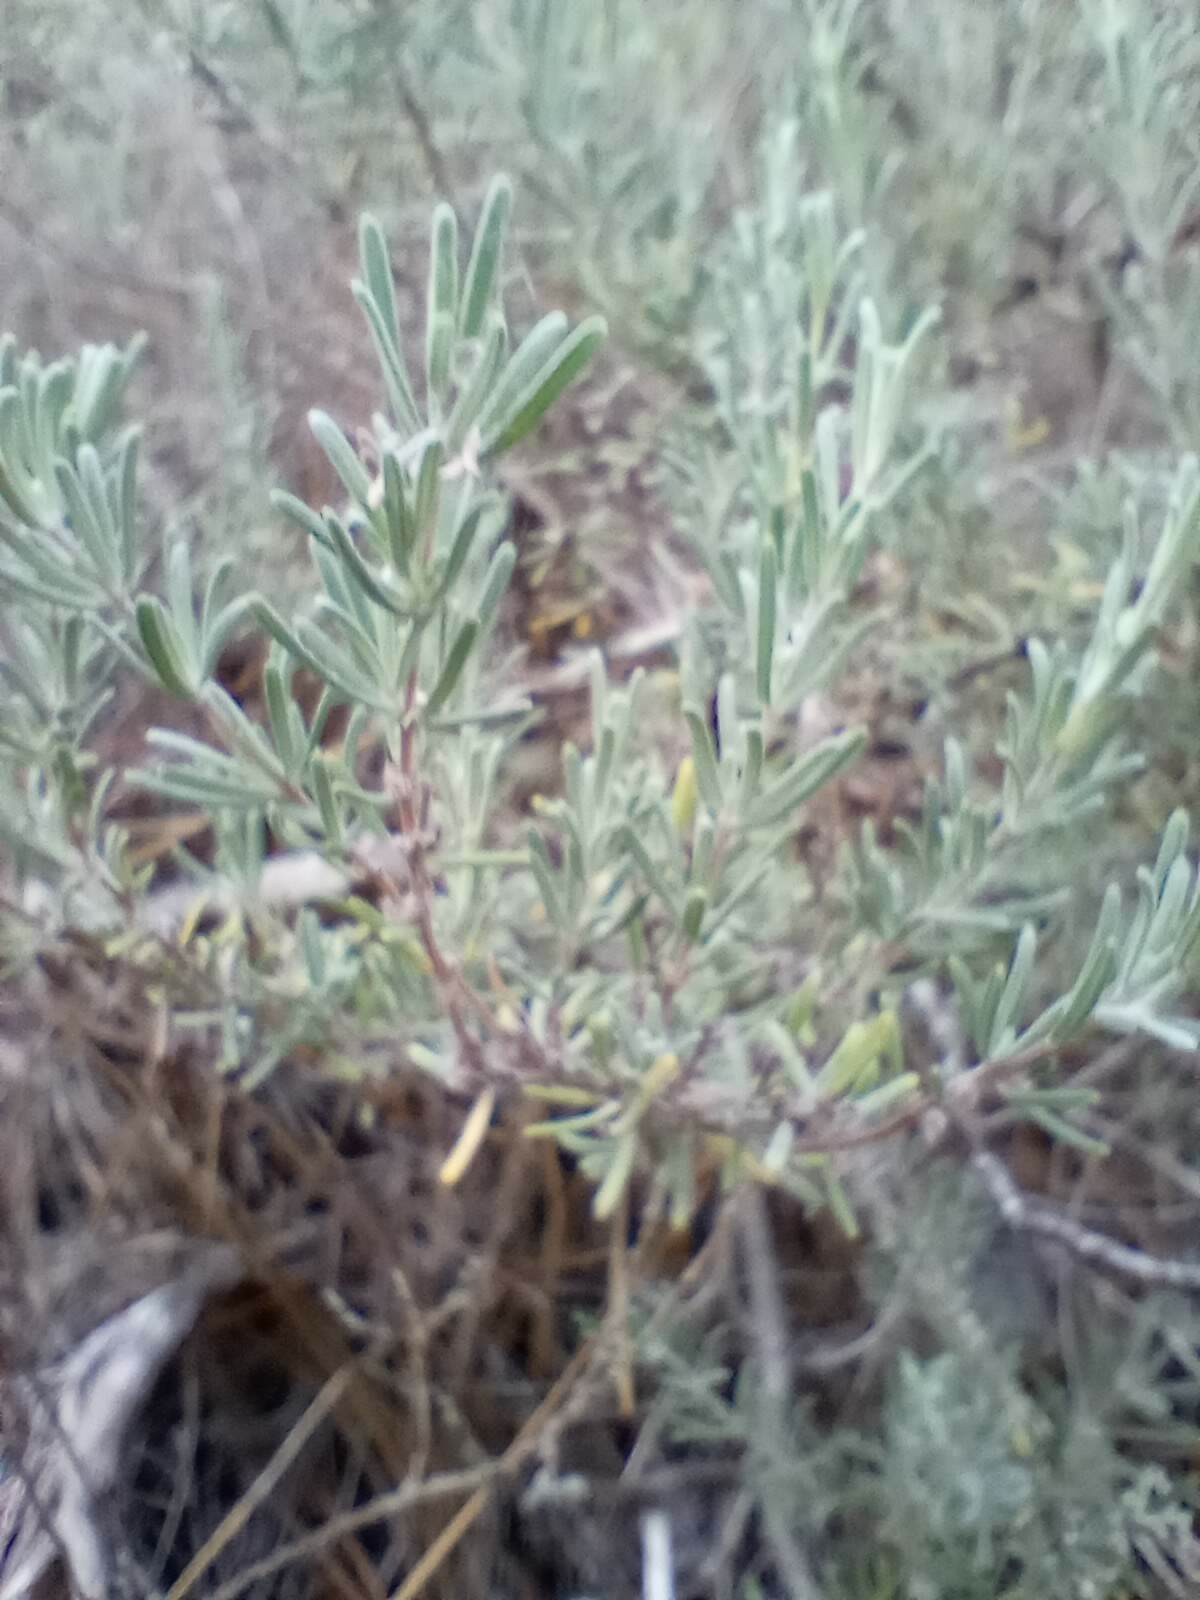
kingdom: Plantae
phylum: Tracheophyta
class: Magnoliopsida
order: Lamiales
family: Lamiaceae
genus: Conradina
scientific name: Conradina canescens
